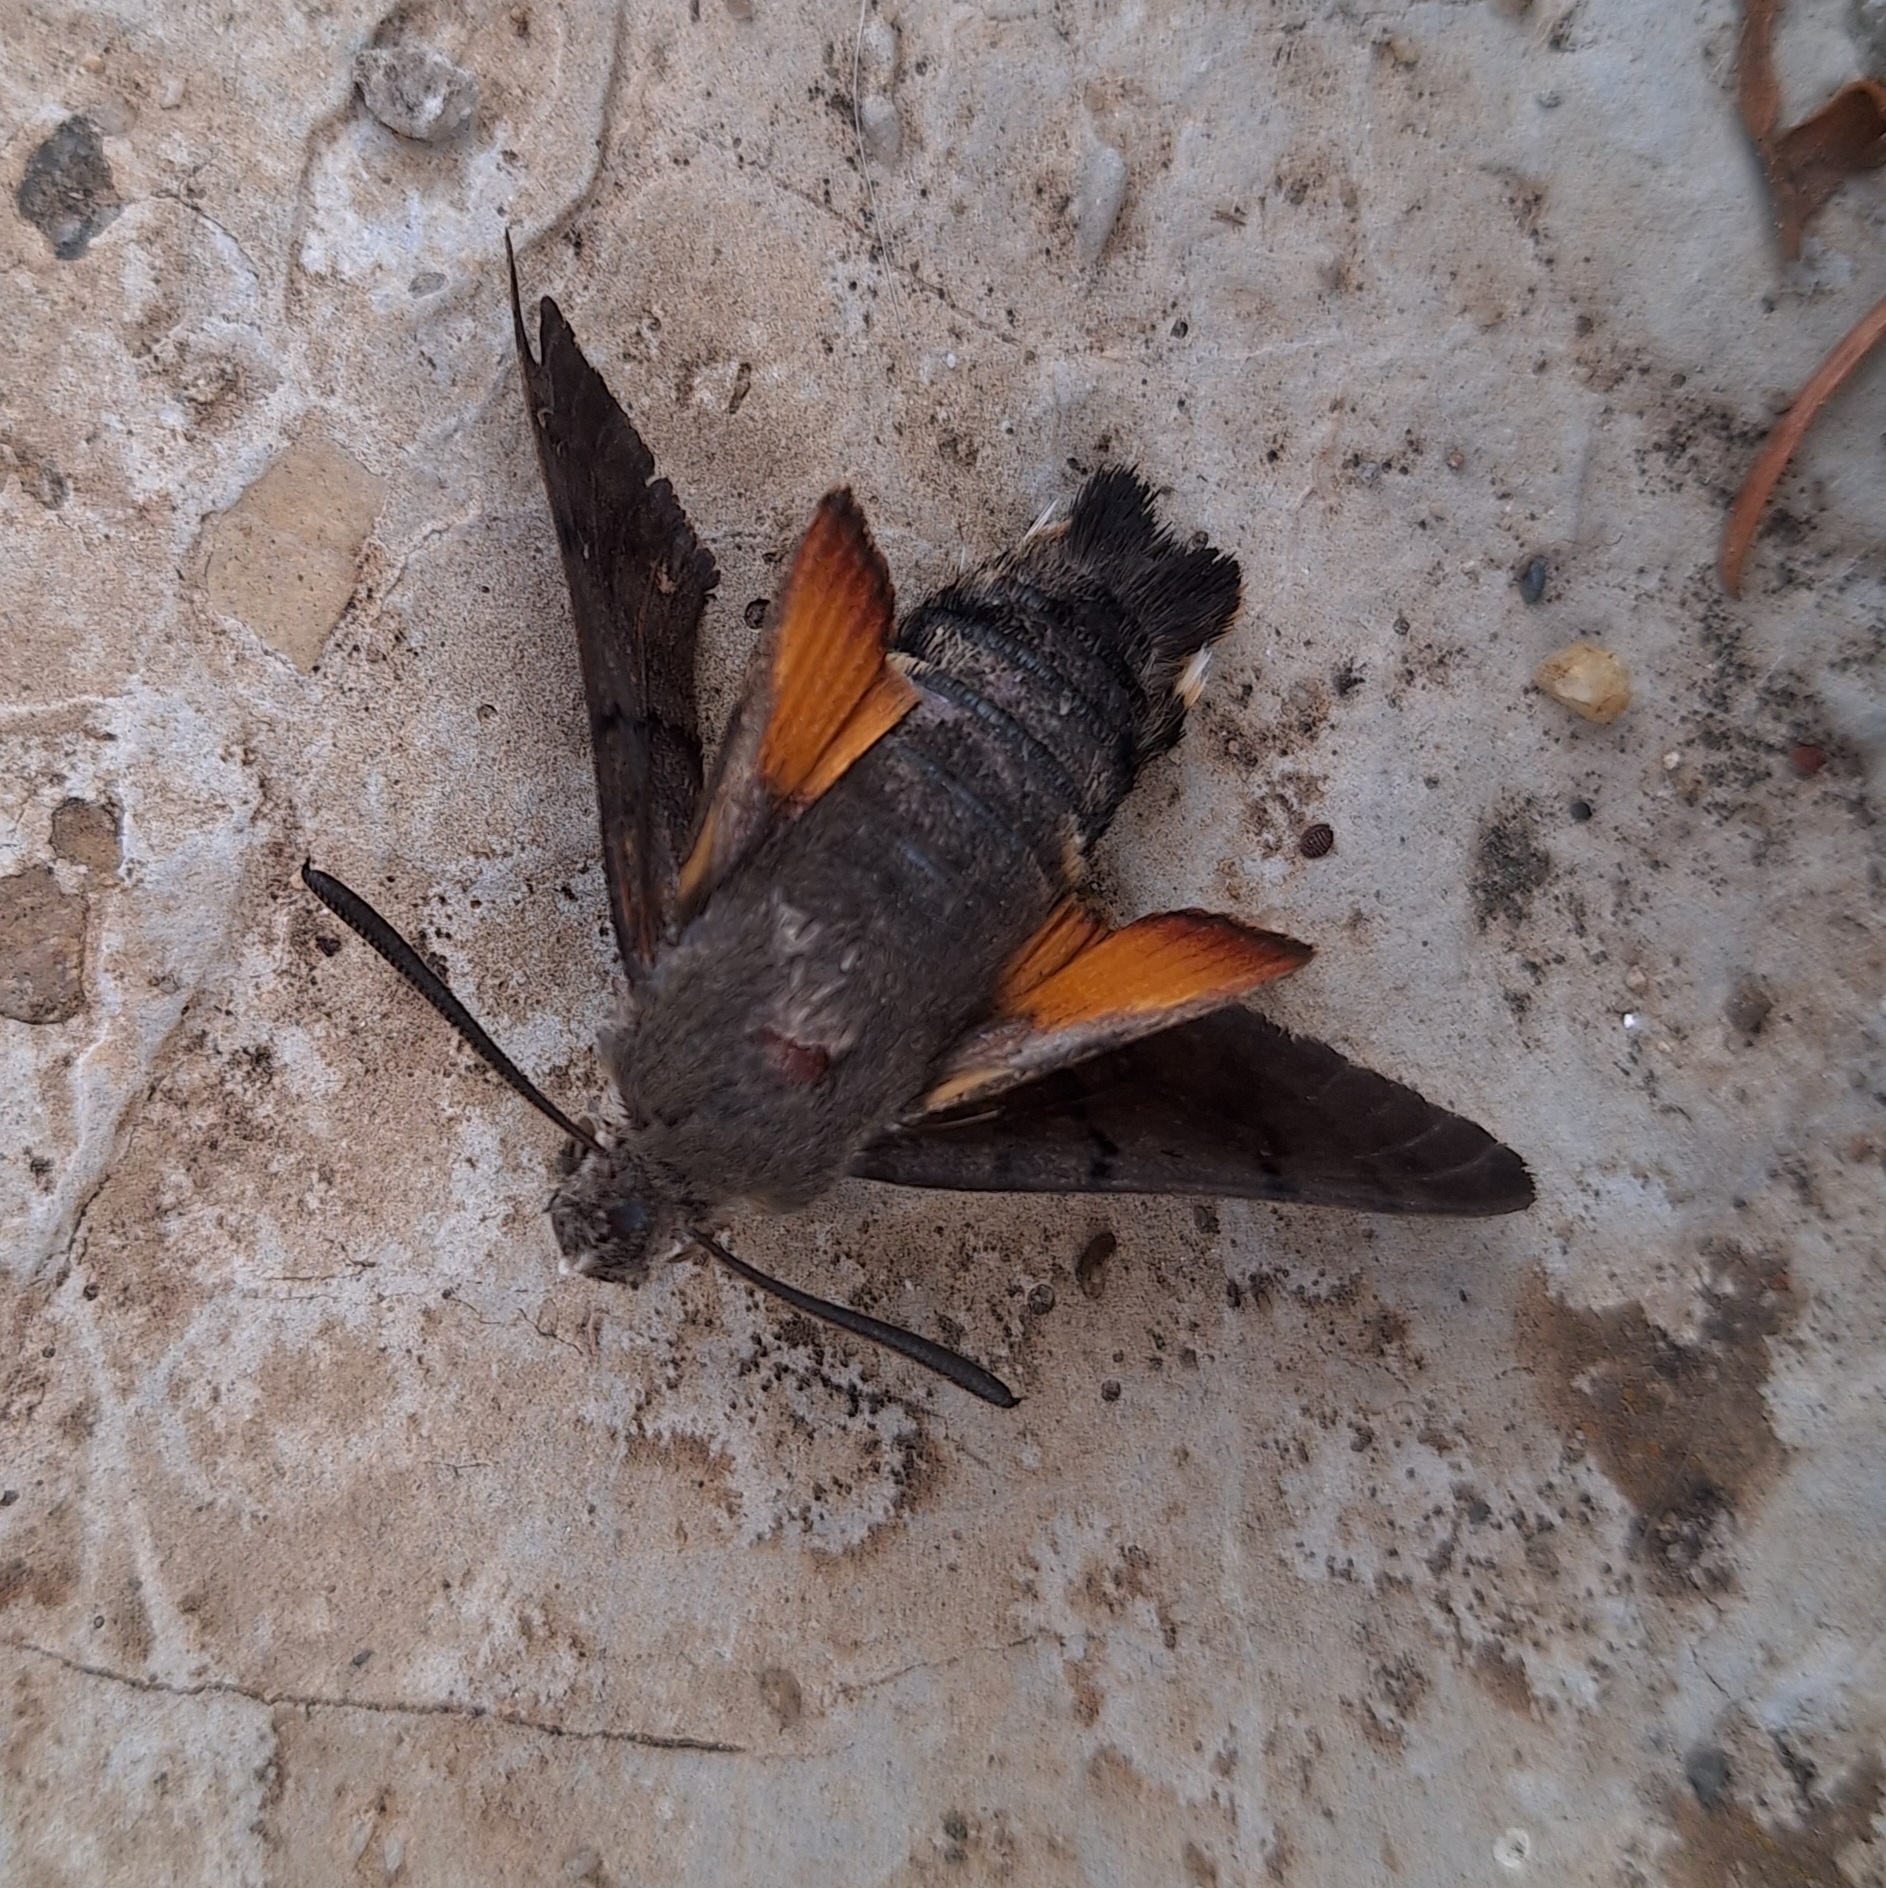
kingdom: Animalia
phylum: Arthropoda
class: Insecta
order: Lepidoptera
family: Sphingidae
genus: Macroglossum
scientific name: Macroglossum stellatarum
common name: Humming-bird hawk-moth
